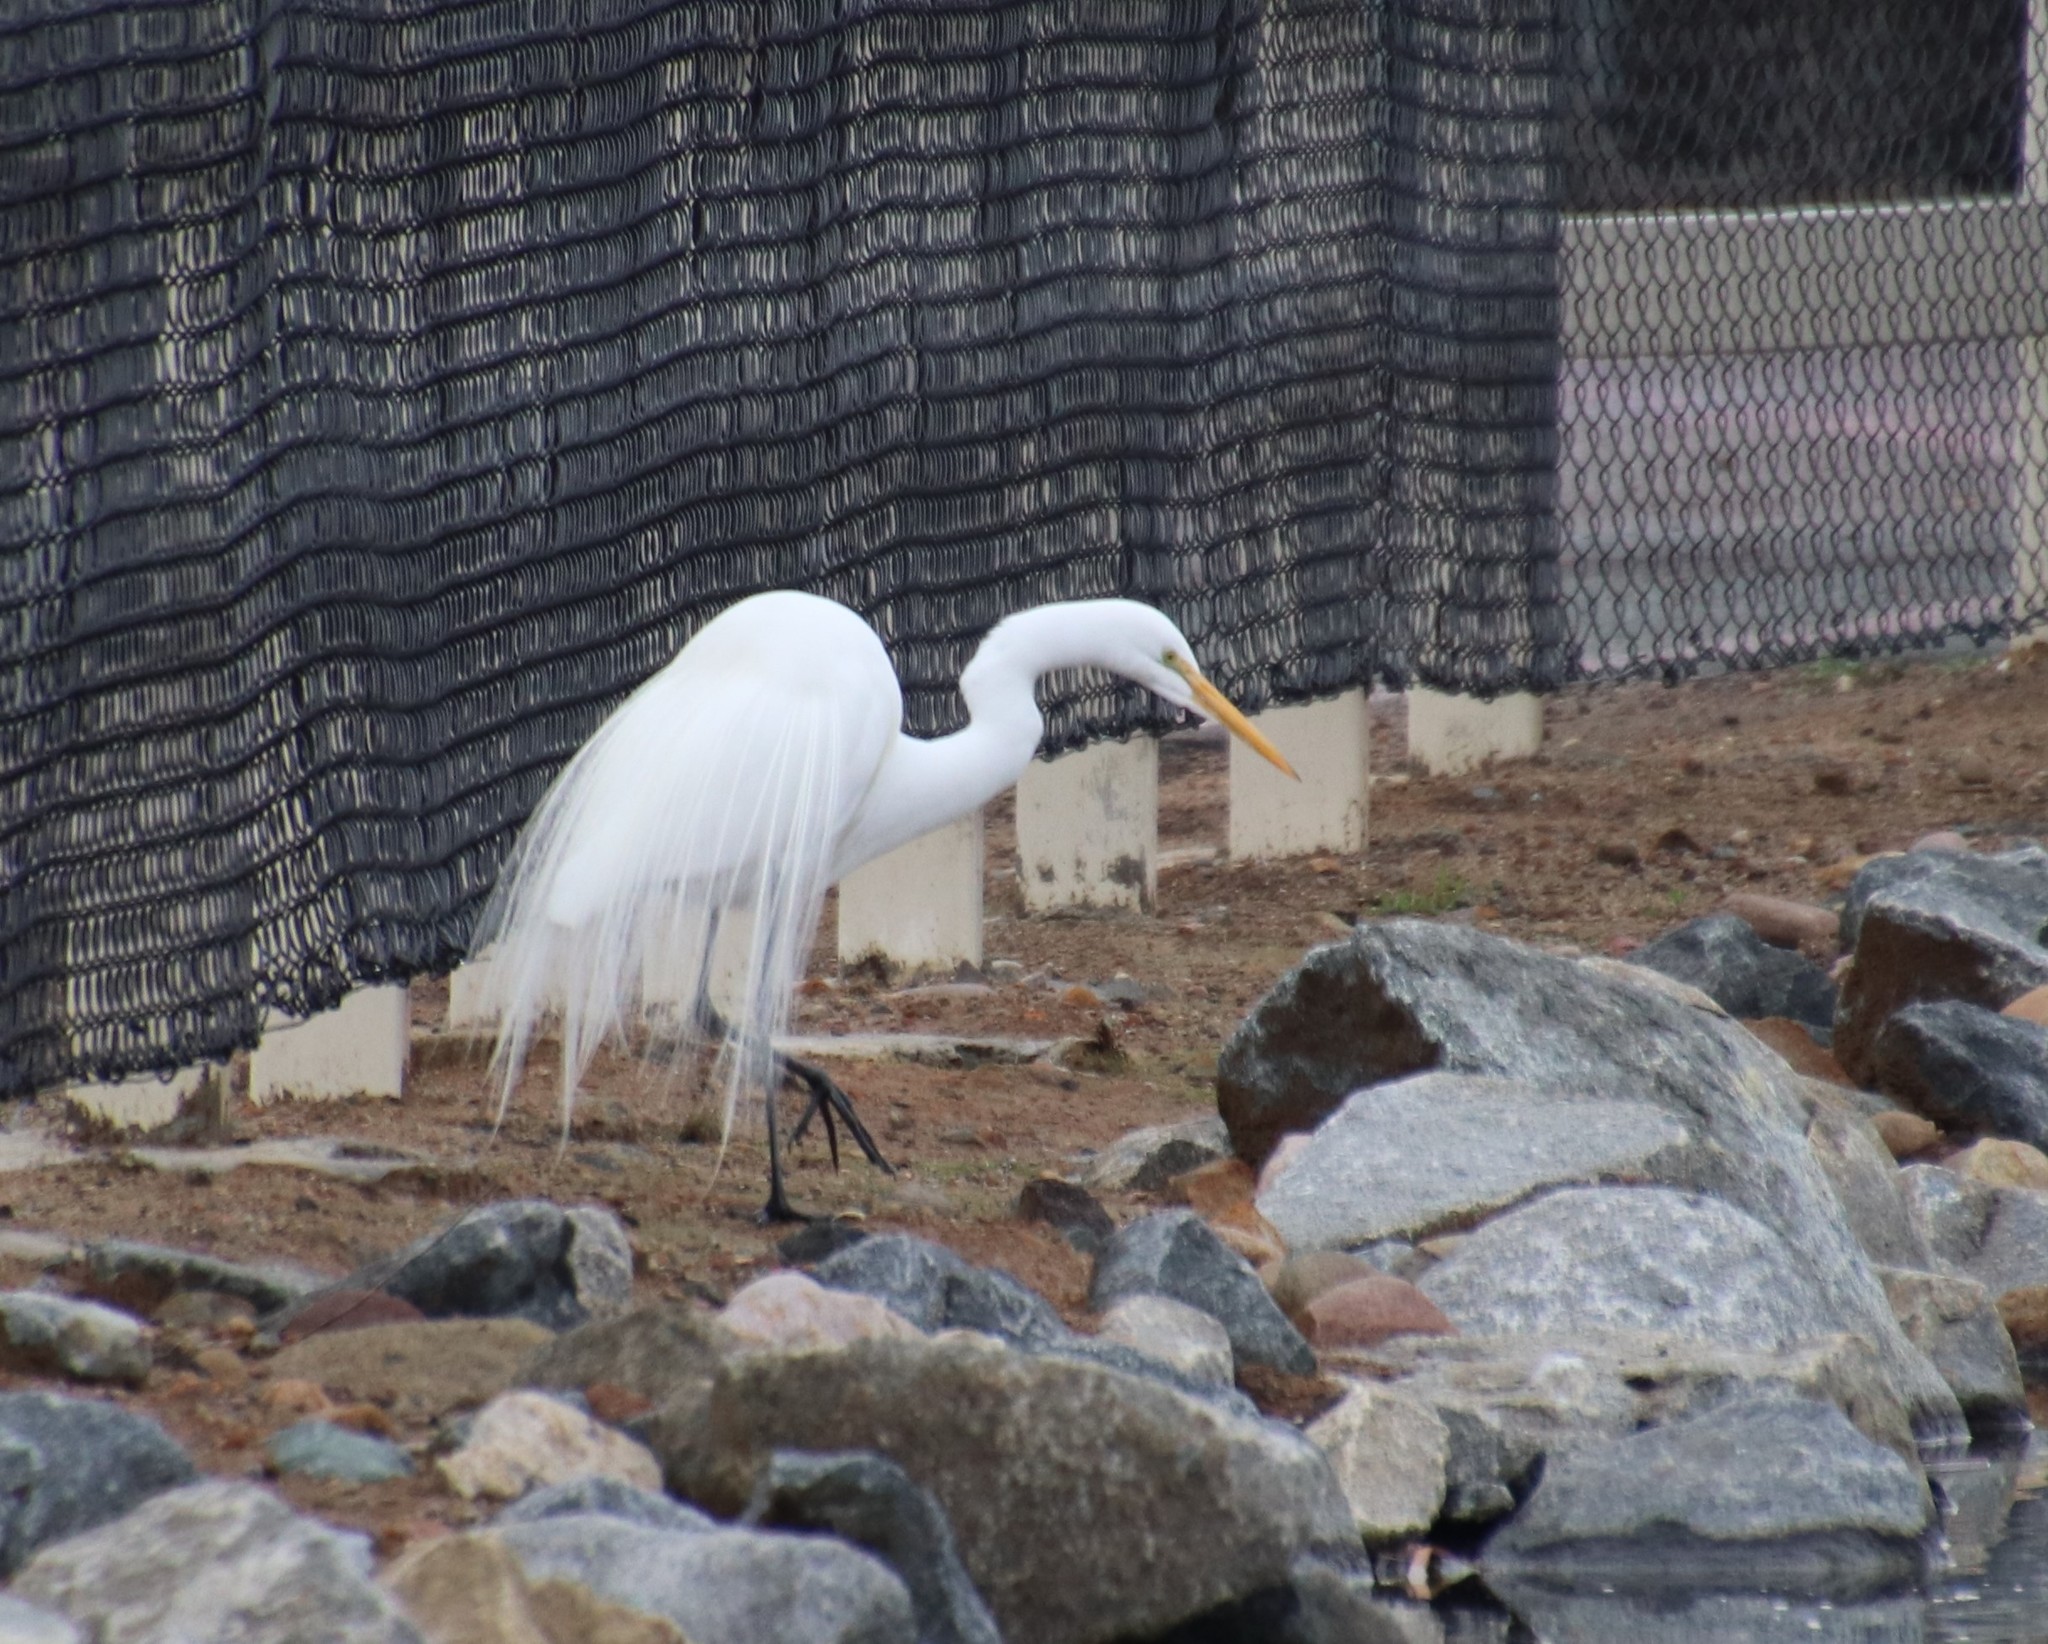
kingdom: Animalia
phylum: Chordata
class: Aves
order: Pelecaniformes
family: Ardeidae
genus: Ardea
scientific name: Ardea alba
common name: Great egret
